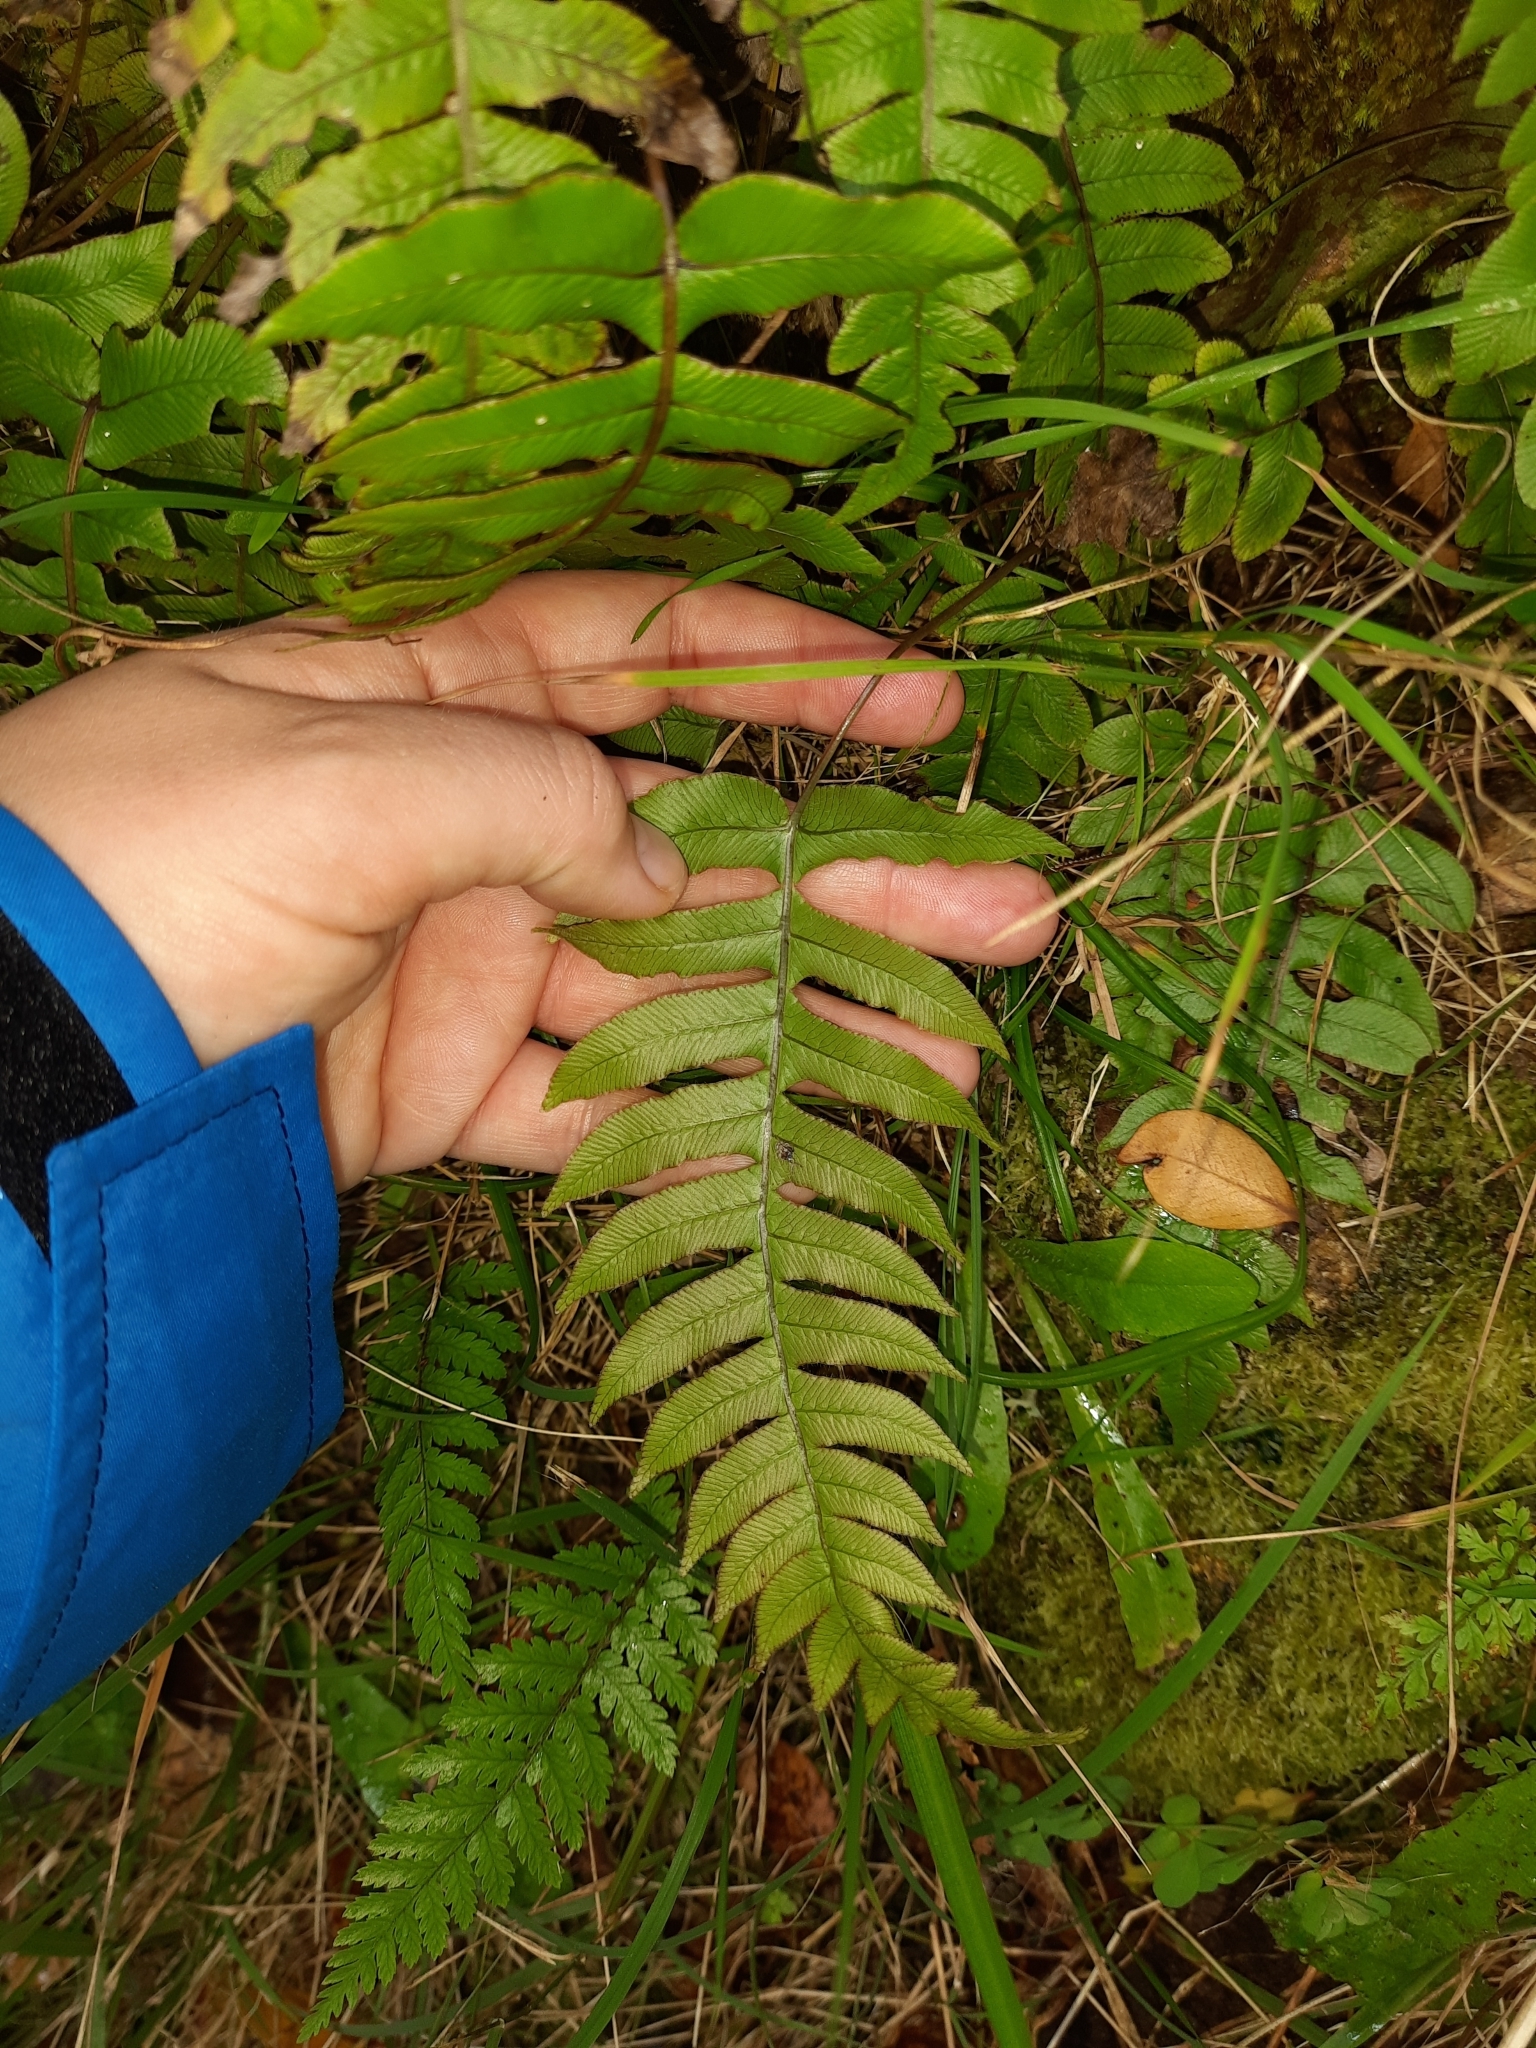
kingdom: Plantae
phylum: Tracheophyta
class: Polypodiopsida
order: Polypodiales
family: Blechnaceae
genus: Cranfillia
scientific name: Cranfillia deltoides
